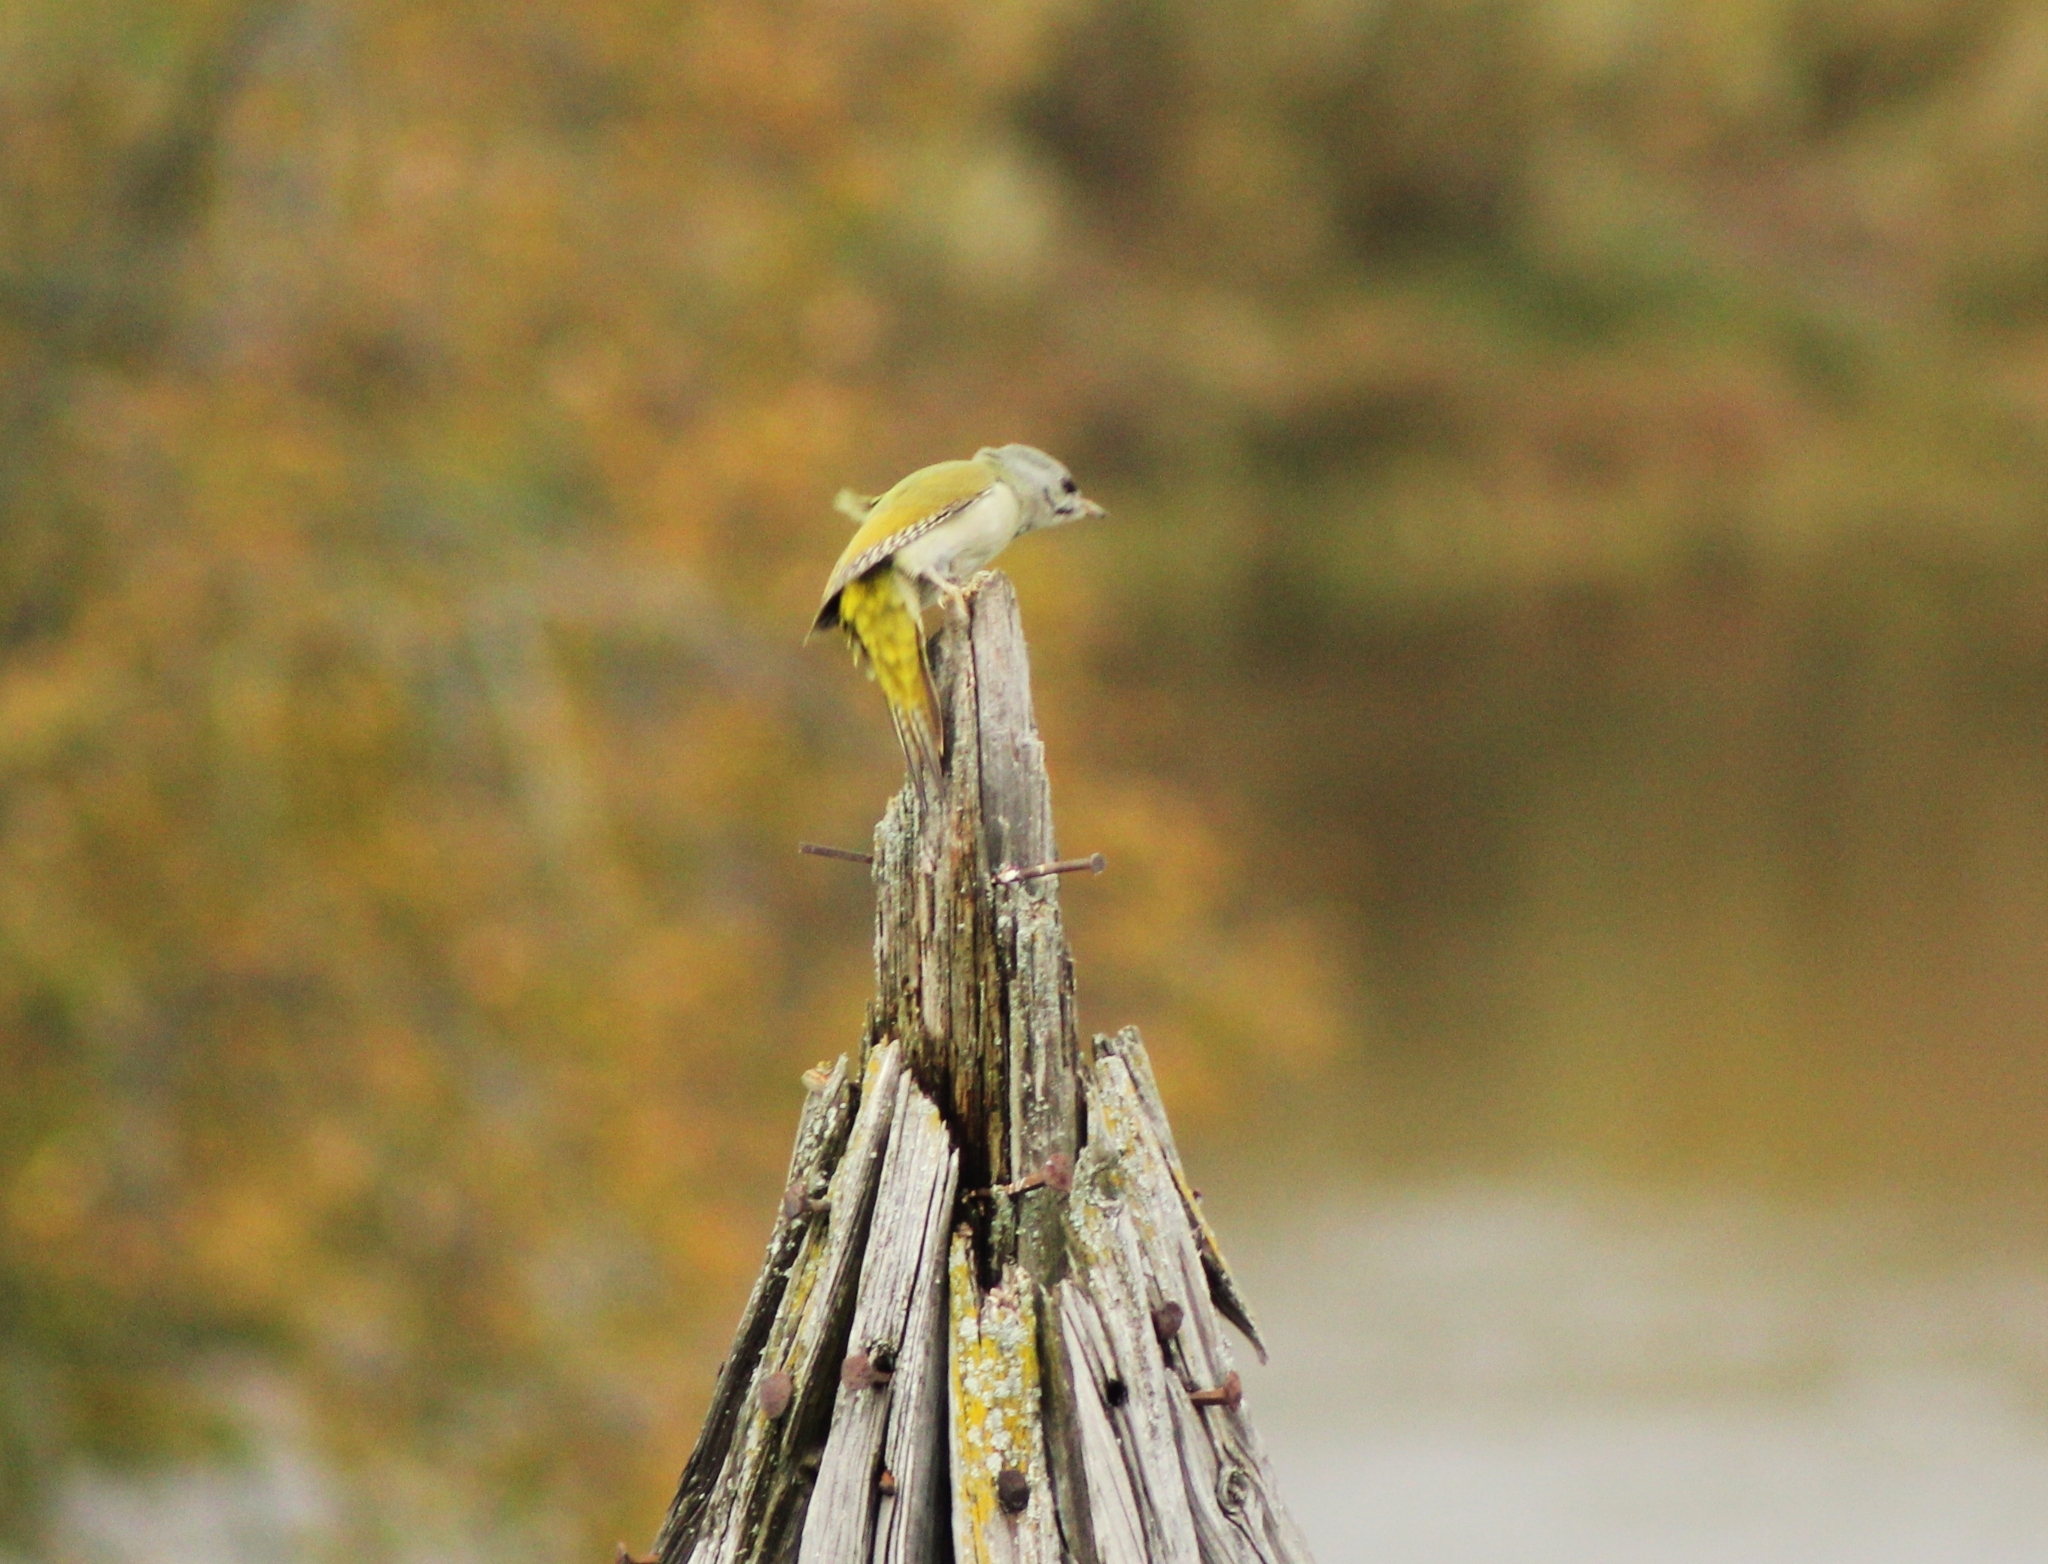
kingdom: Animalia
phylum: Chordata
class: Aves
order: Piciformes
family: Picidae
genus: Picus
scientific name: Picus canus
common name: Grey-headed woodpecker
